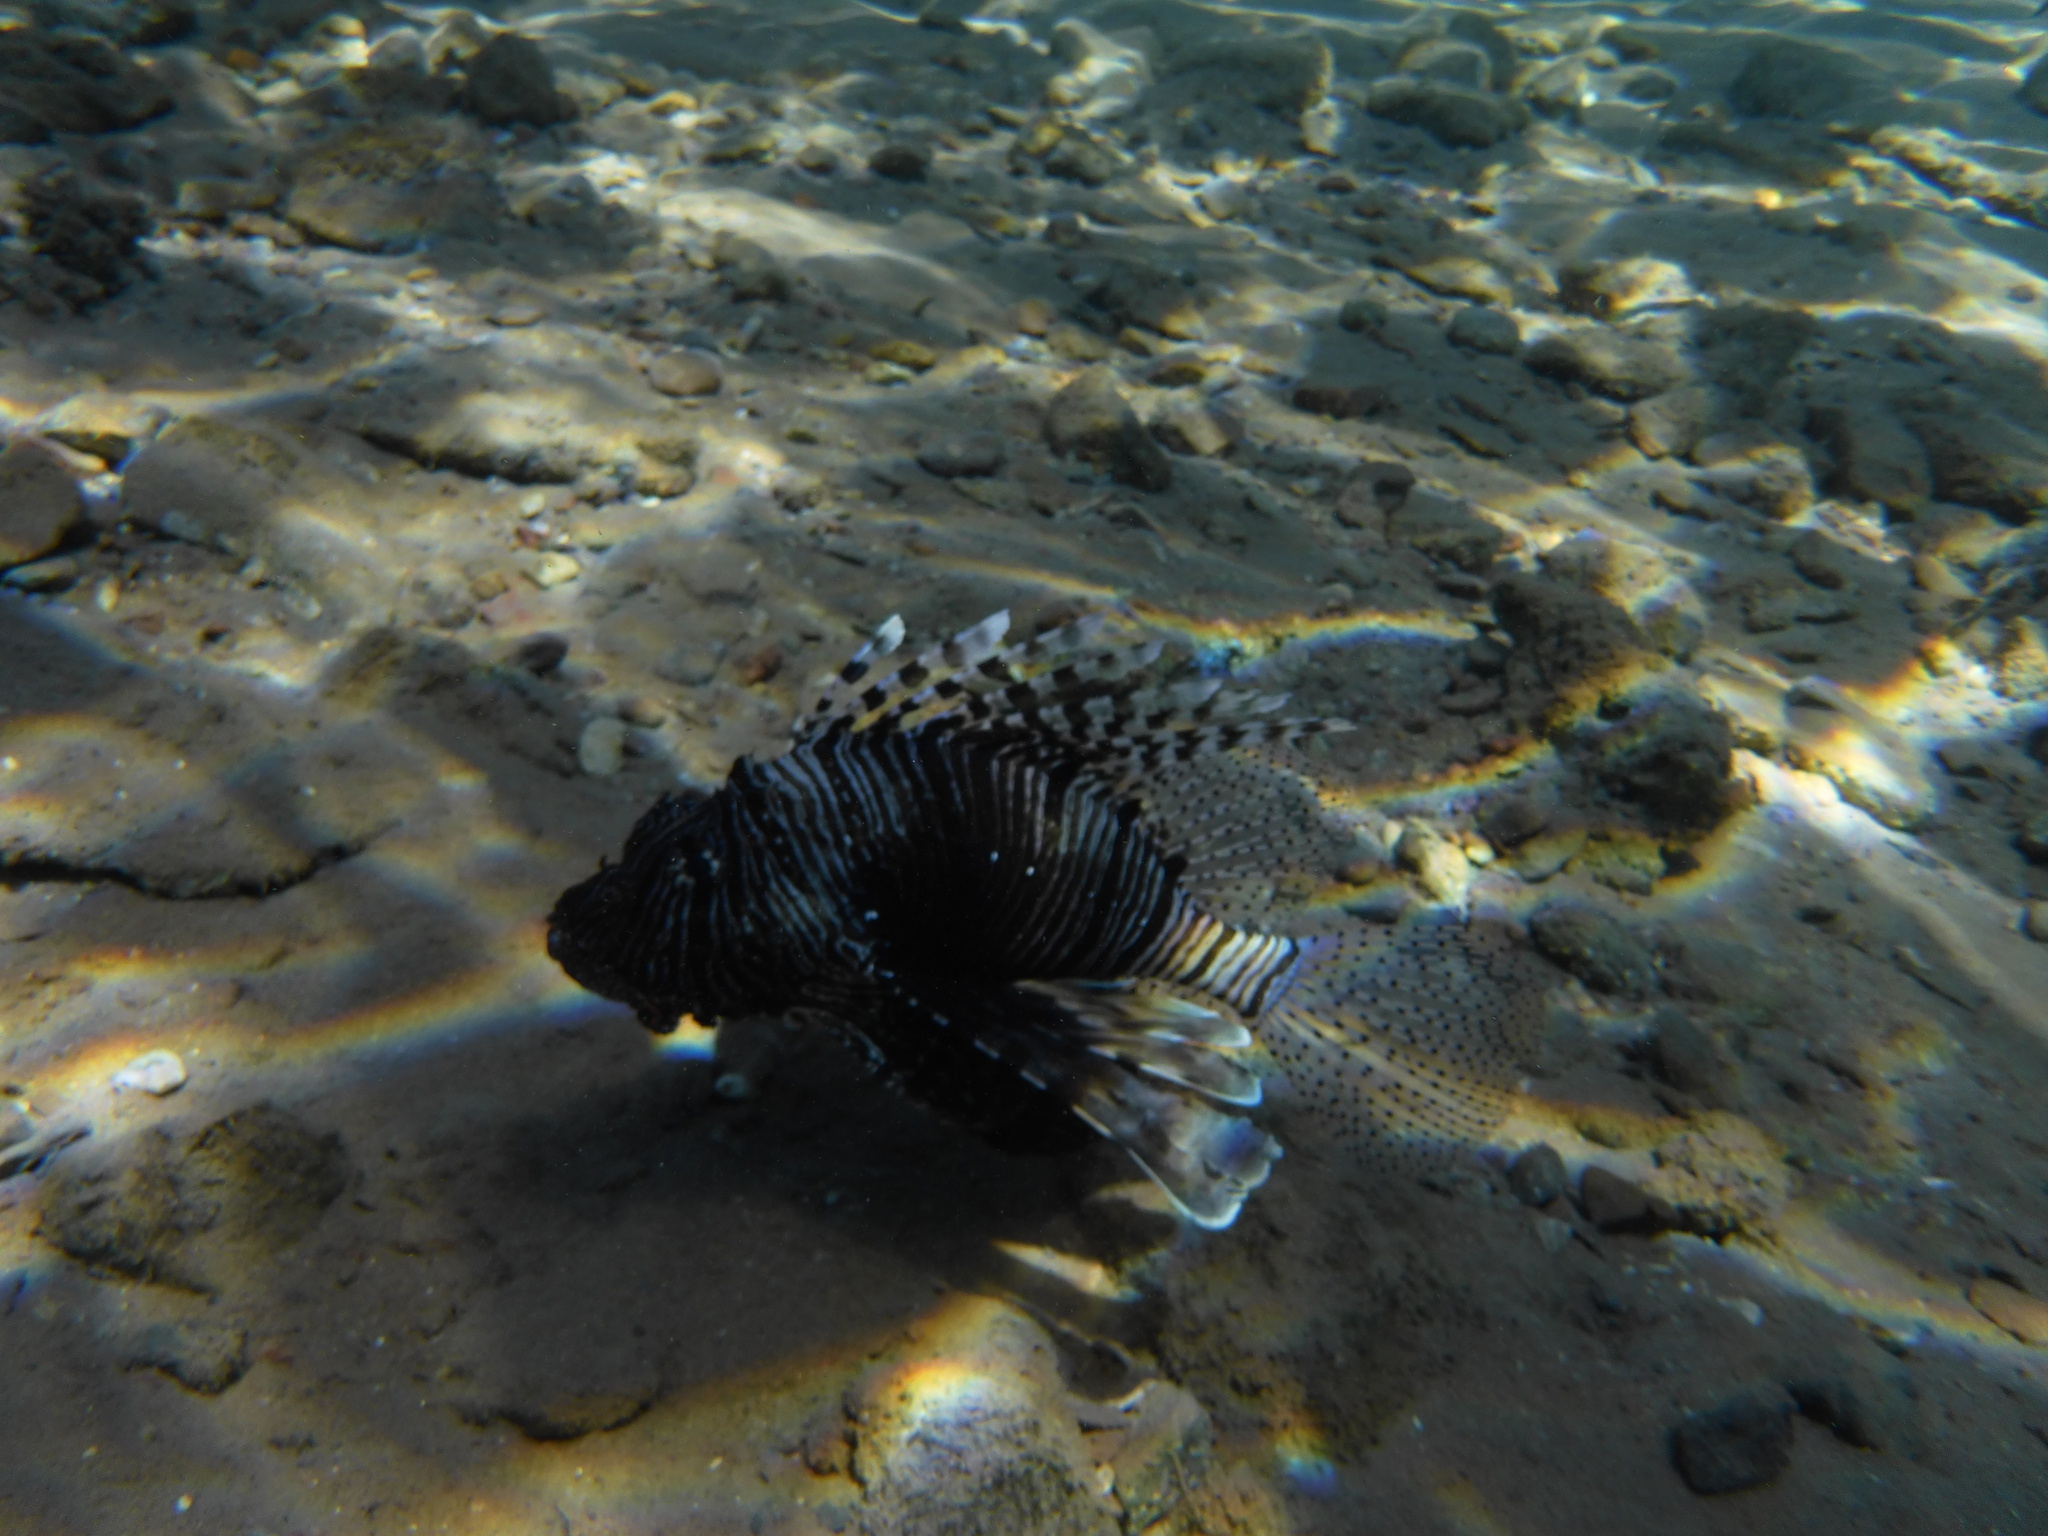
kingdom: Animalia
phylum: Chordata
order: Scorpaeniformes
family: Scorpaenidae
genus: Pterois
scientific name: Pterois miles
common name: Devil firefish
